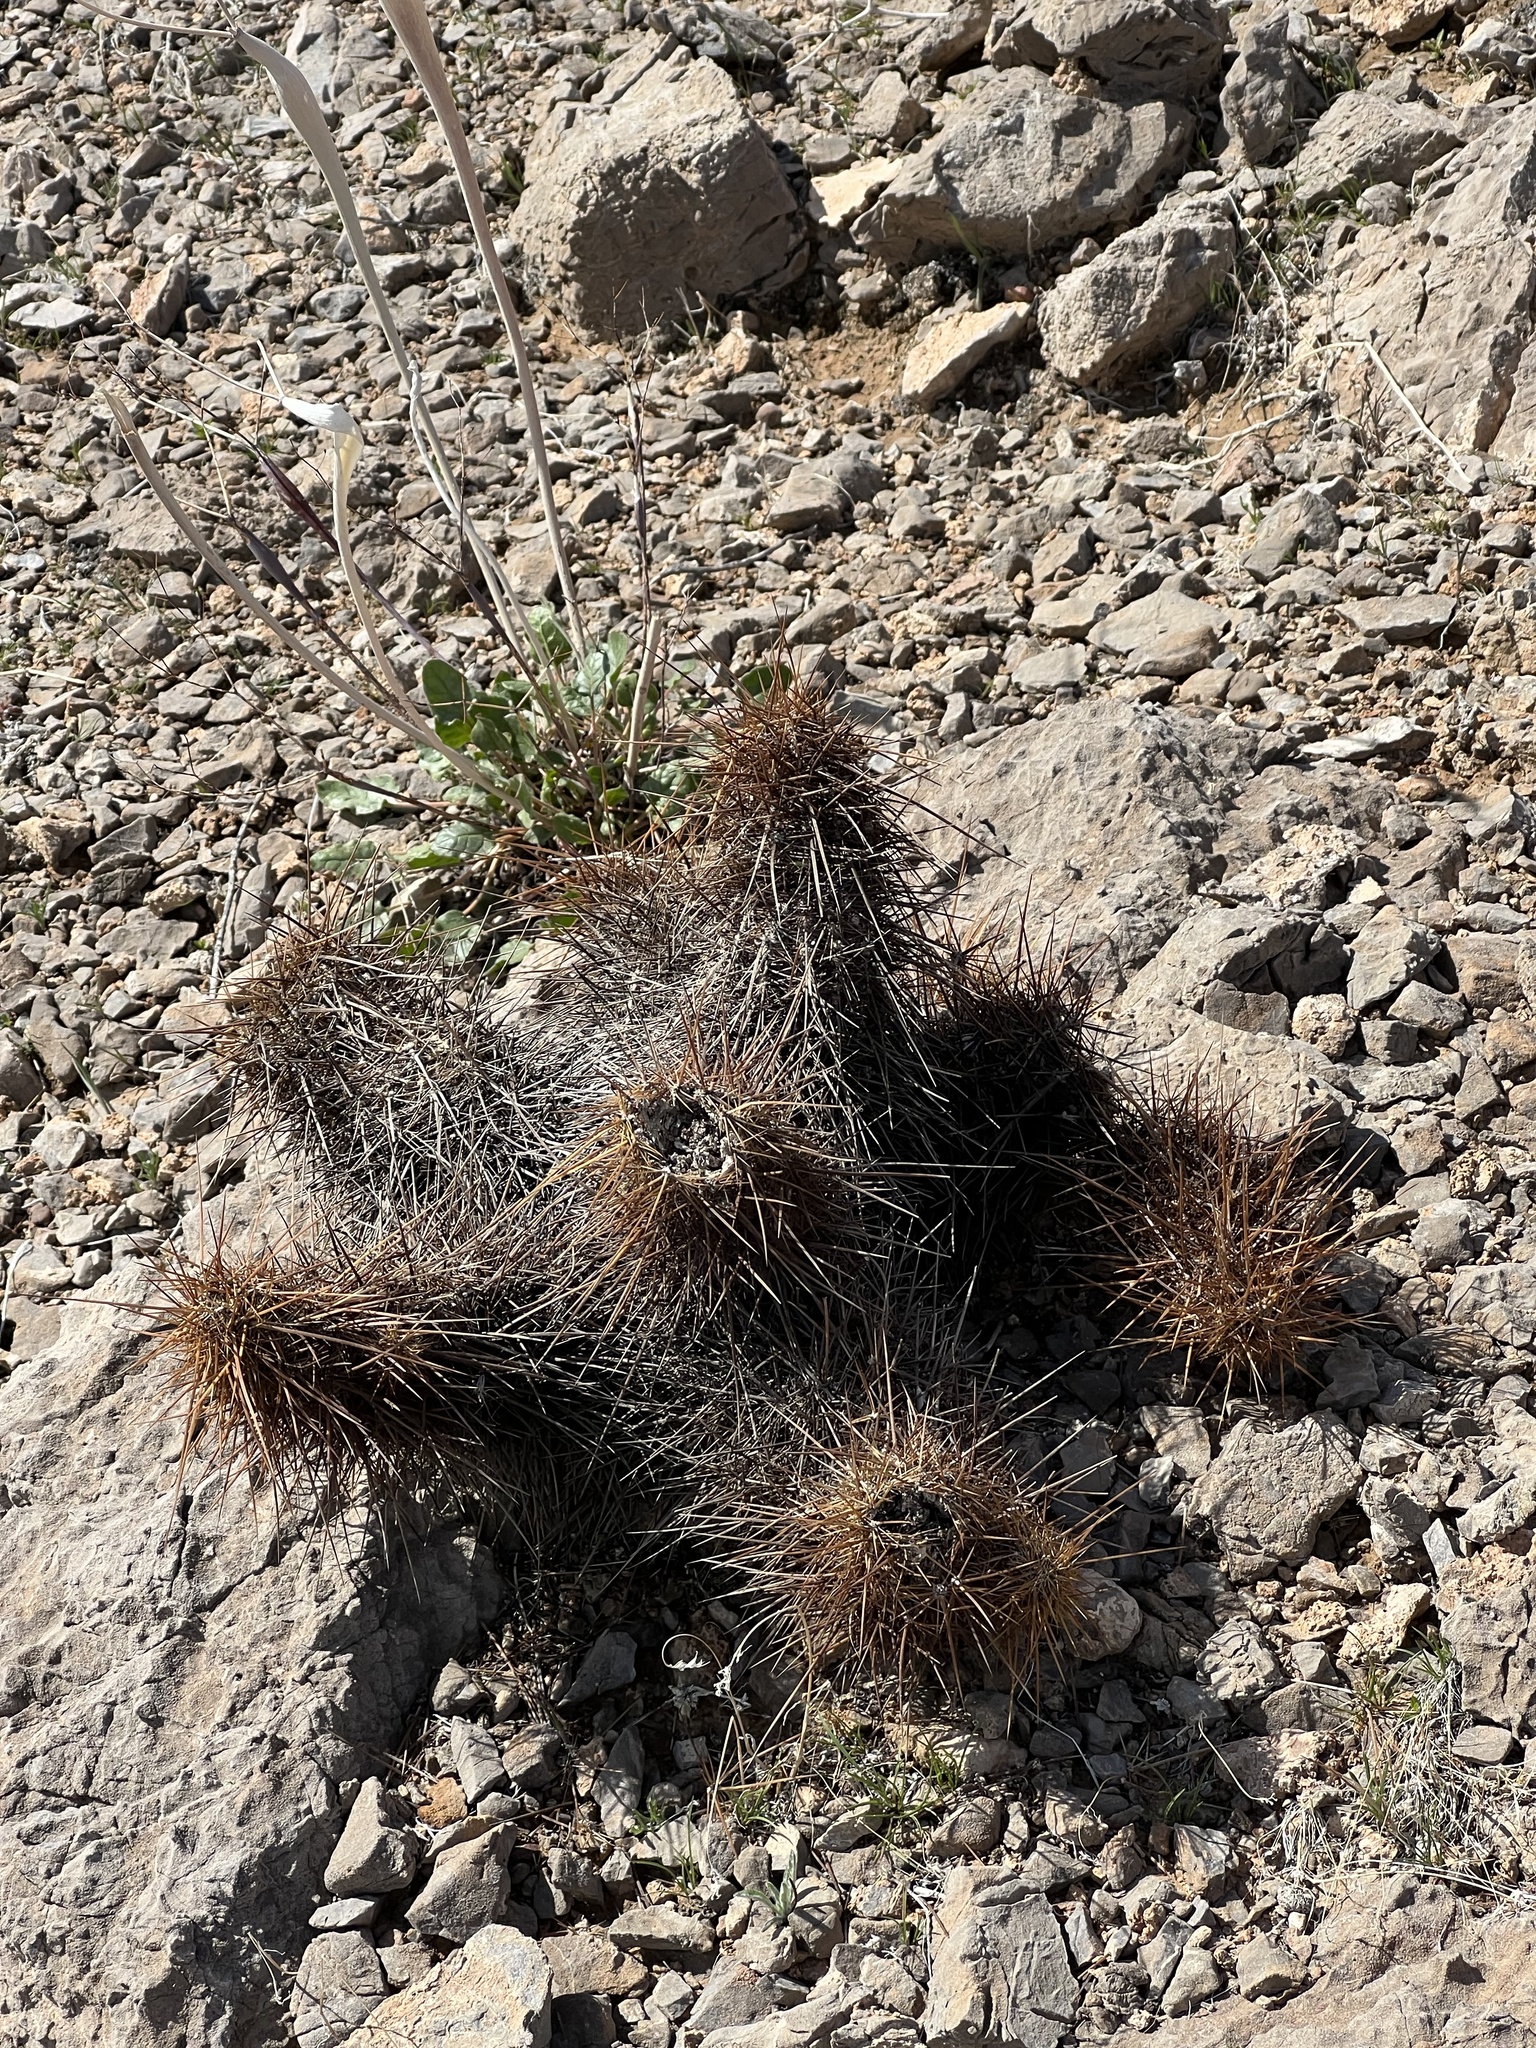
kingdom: Plantae
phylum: Tracheophyta
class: Magnoliopsida
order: Caryophyllales
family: Cactaceae
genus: Echinocereus
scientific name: Echinocereus engelmannii
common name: Engelmann's hedgehog cactus
